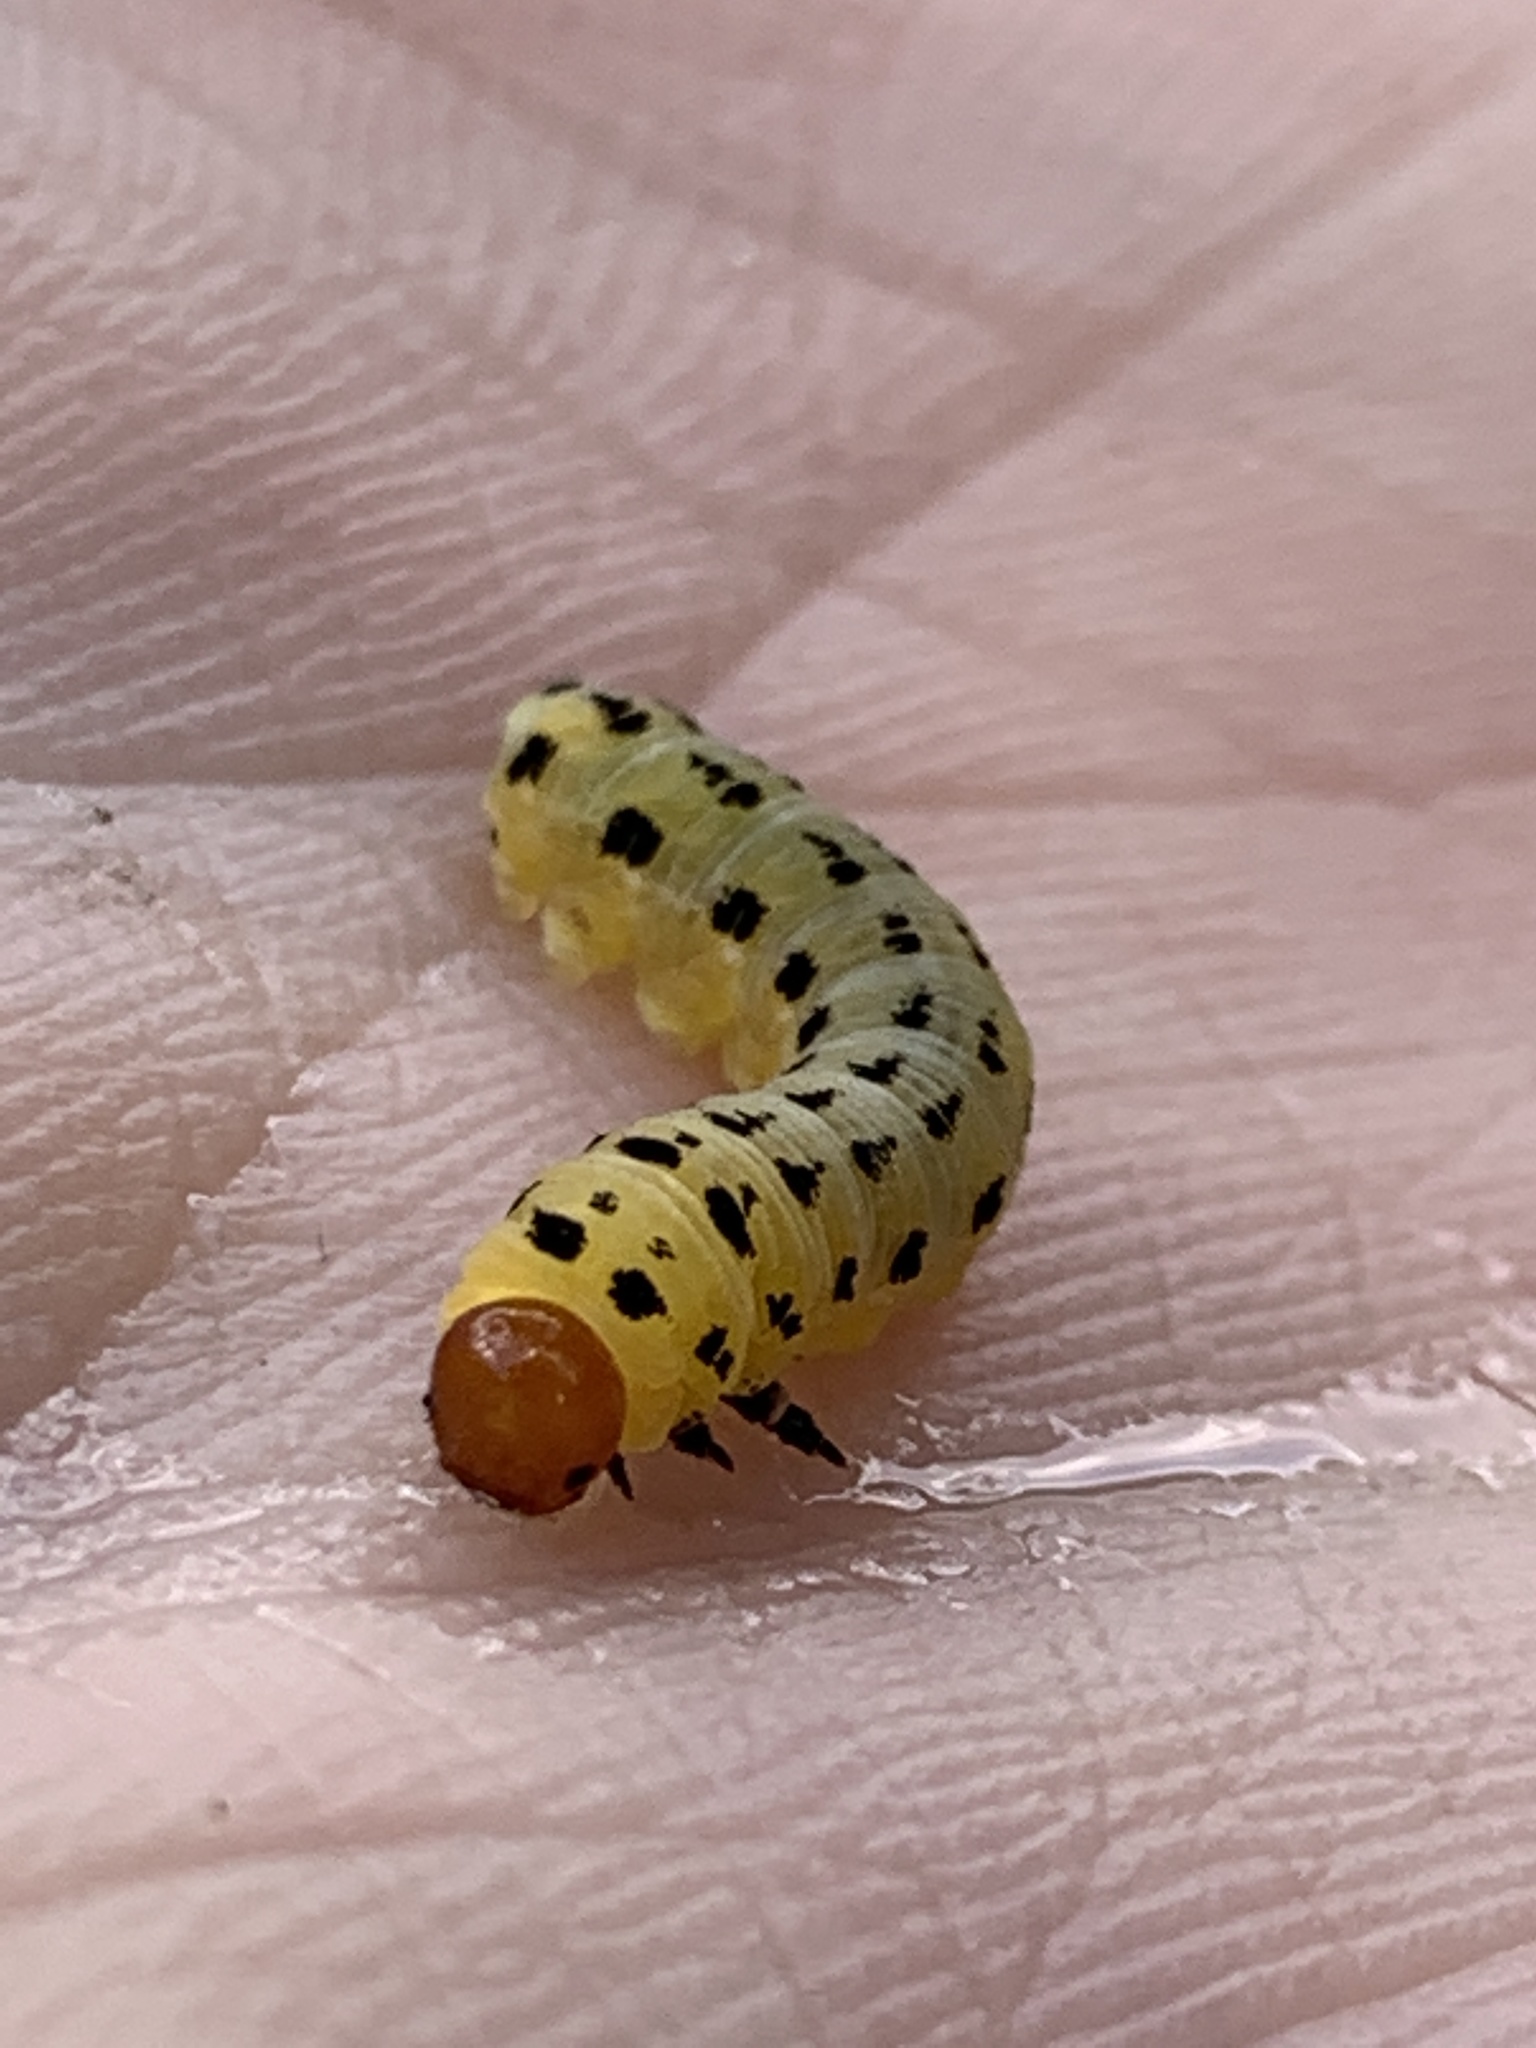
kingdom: Animalia
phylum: Arthropoda
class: Insecta
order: Hymenoptera
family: Diprionidae
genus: Neodiprion
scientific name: Neodiprion lecontei
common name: Redheaded pine sawfly
